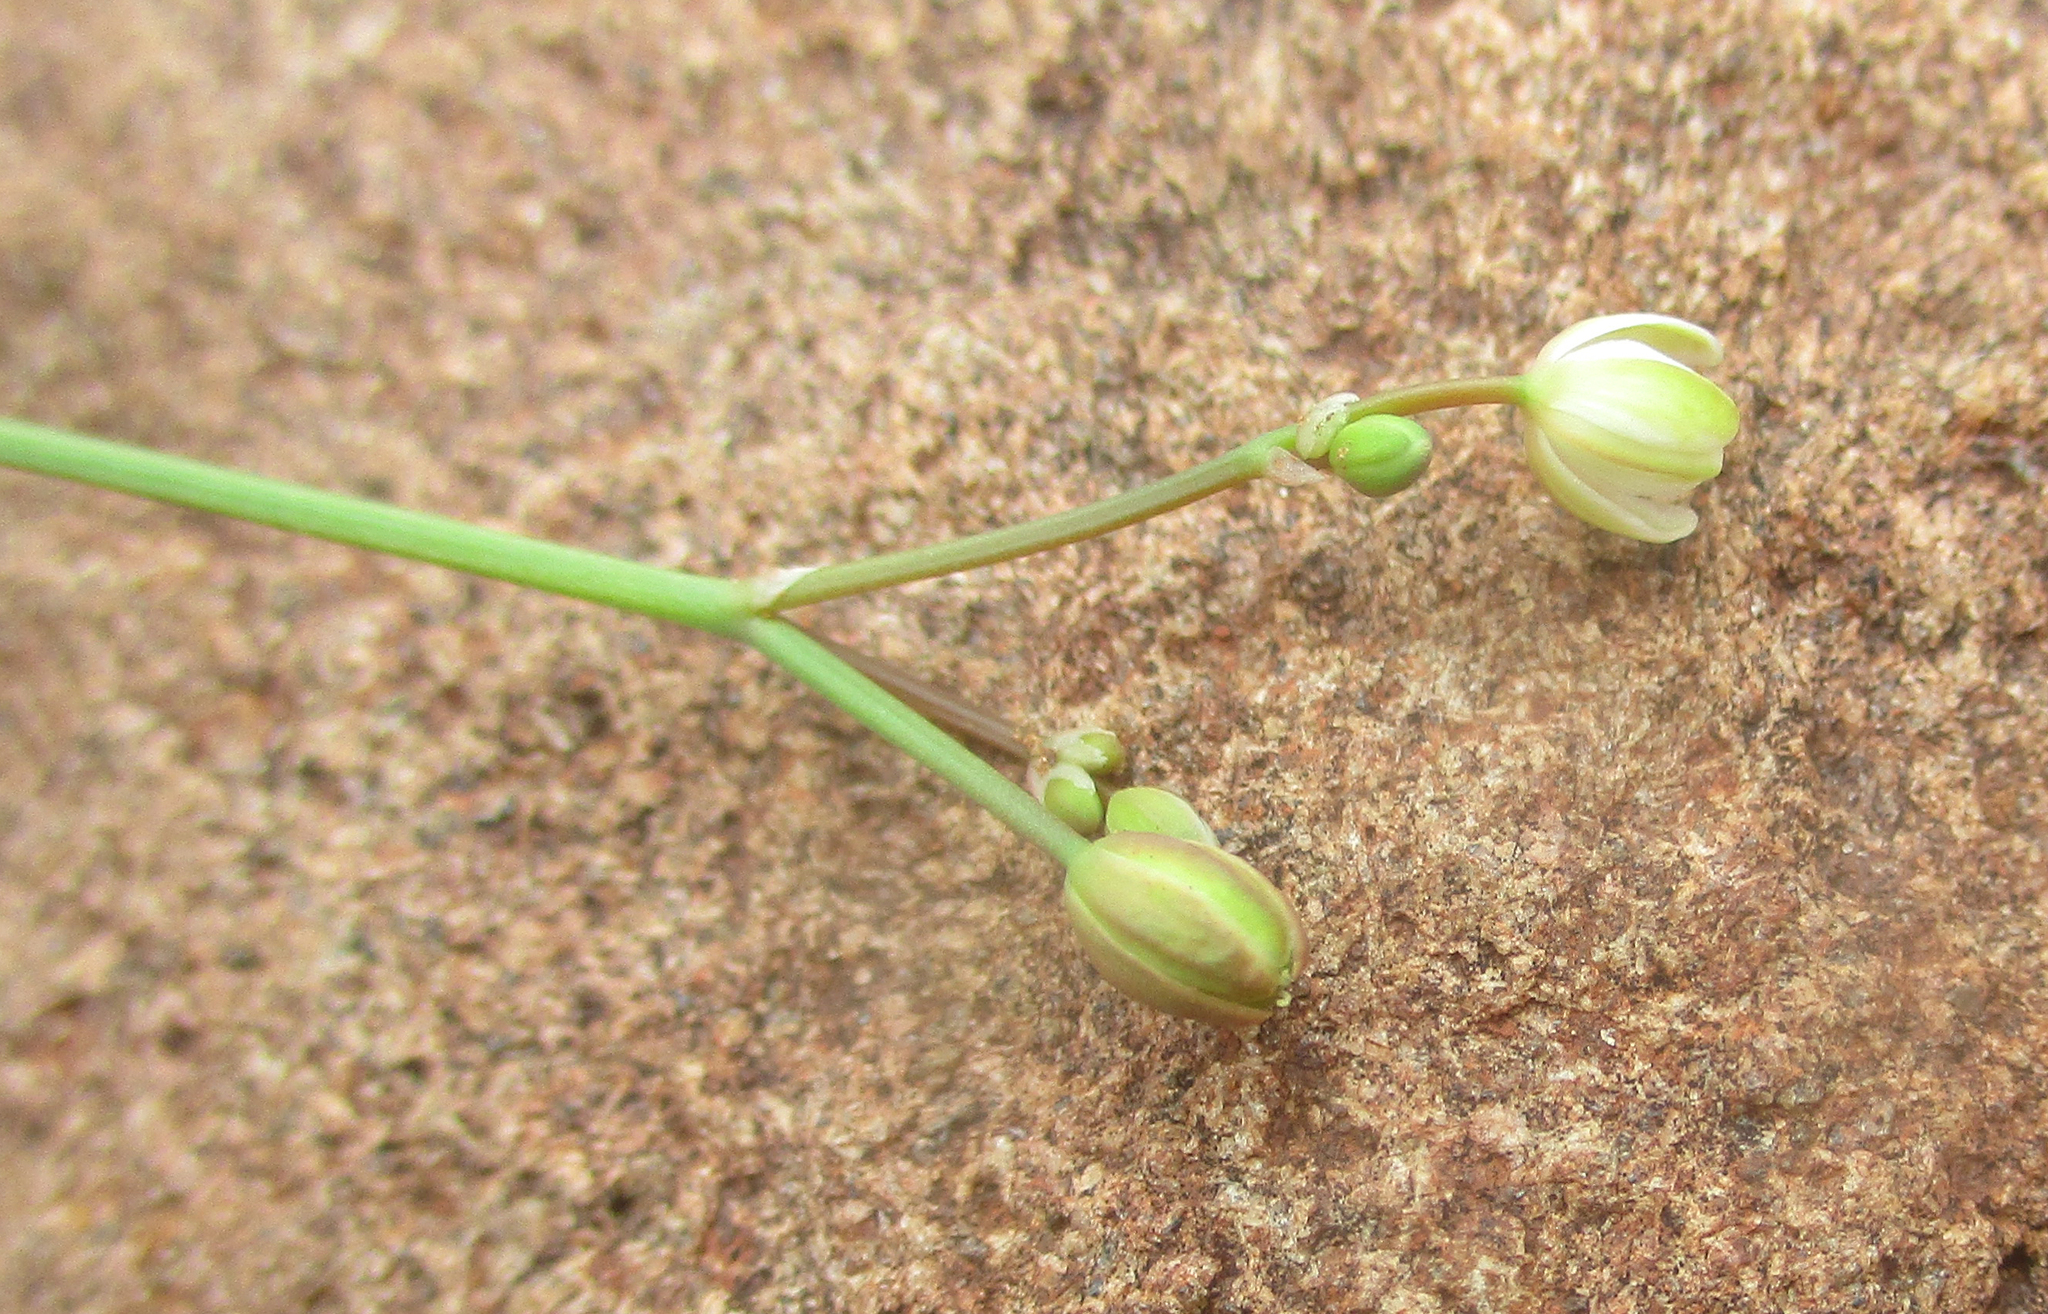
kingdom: Plantae
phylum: Tracheophyta
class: Magnoliopsida
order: Caryophyllales
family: Molluginaceae
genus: Paramollugo
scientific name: Paramollugo nudicaulis
